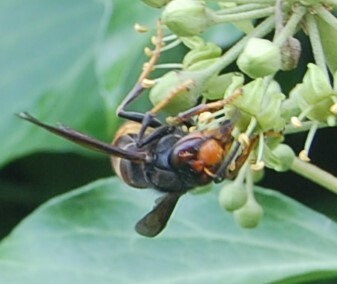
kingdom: Animalia
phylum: Arthropoda
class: Insecta
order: Hymenoptera
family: Vespidae
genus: Vespa
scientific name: Vespa velutina
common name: Asian hornet
